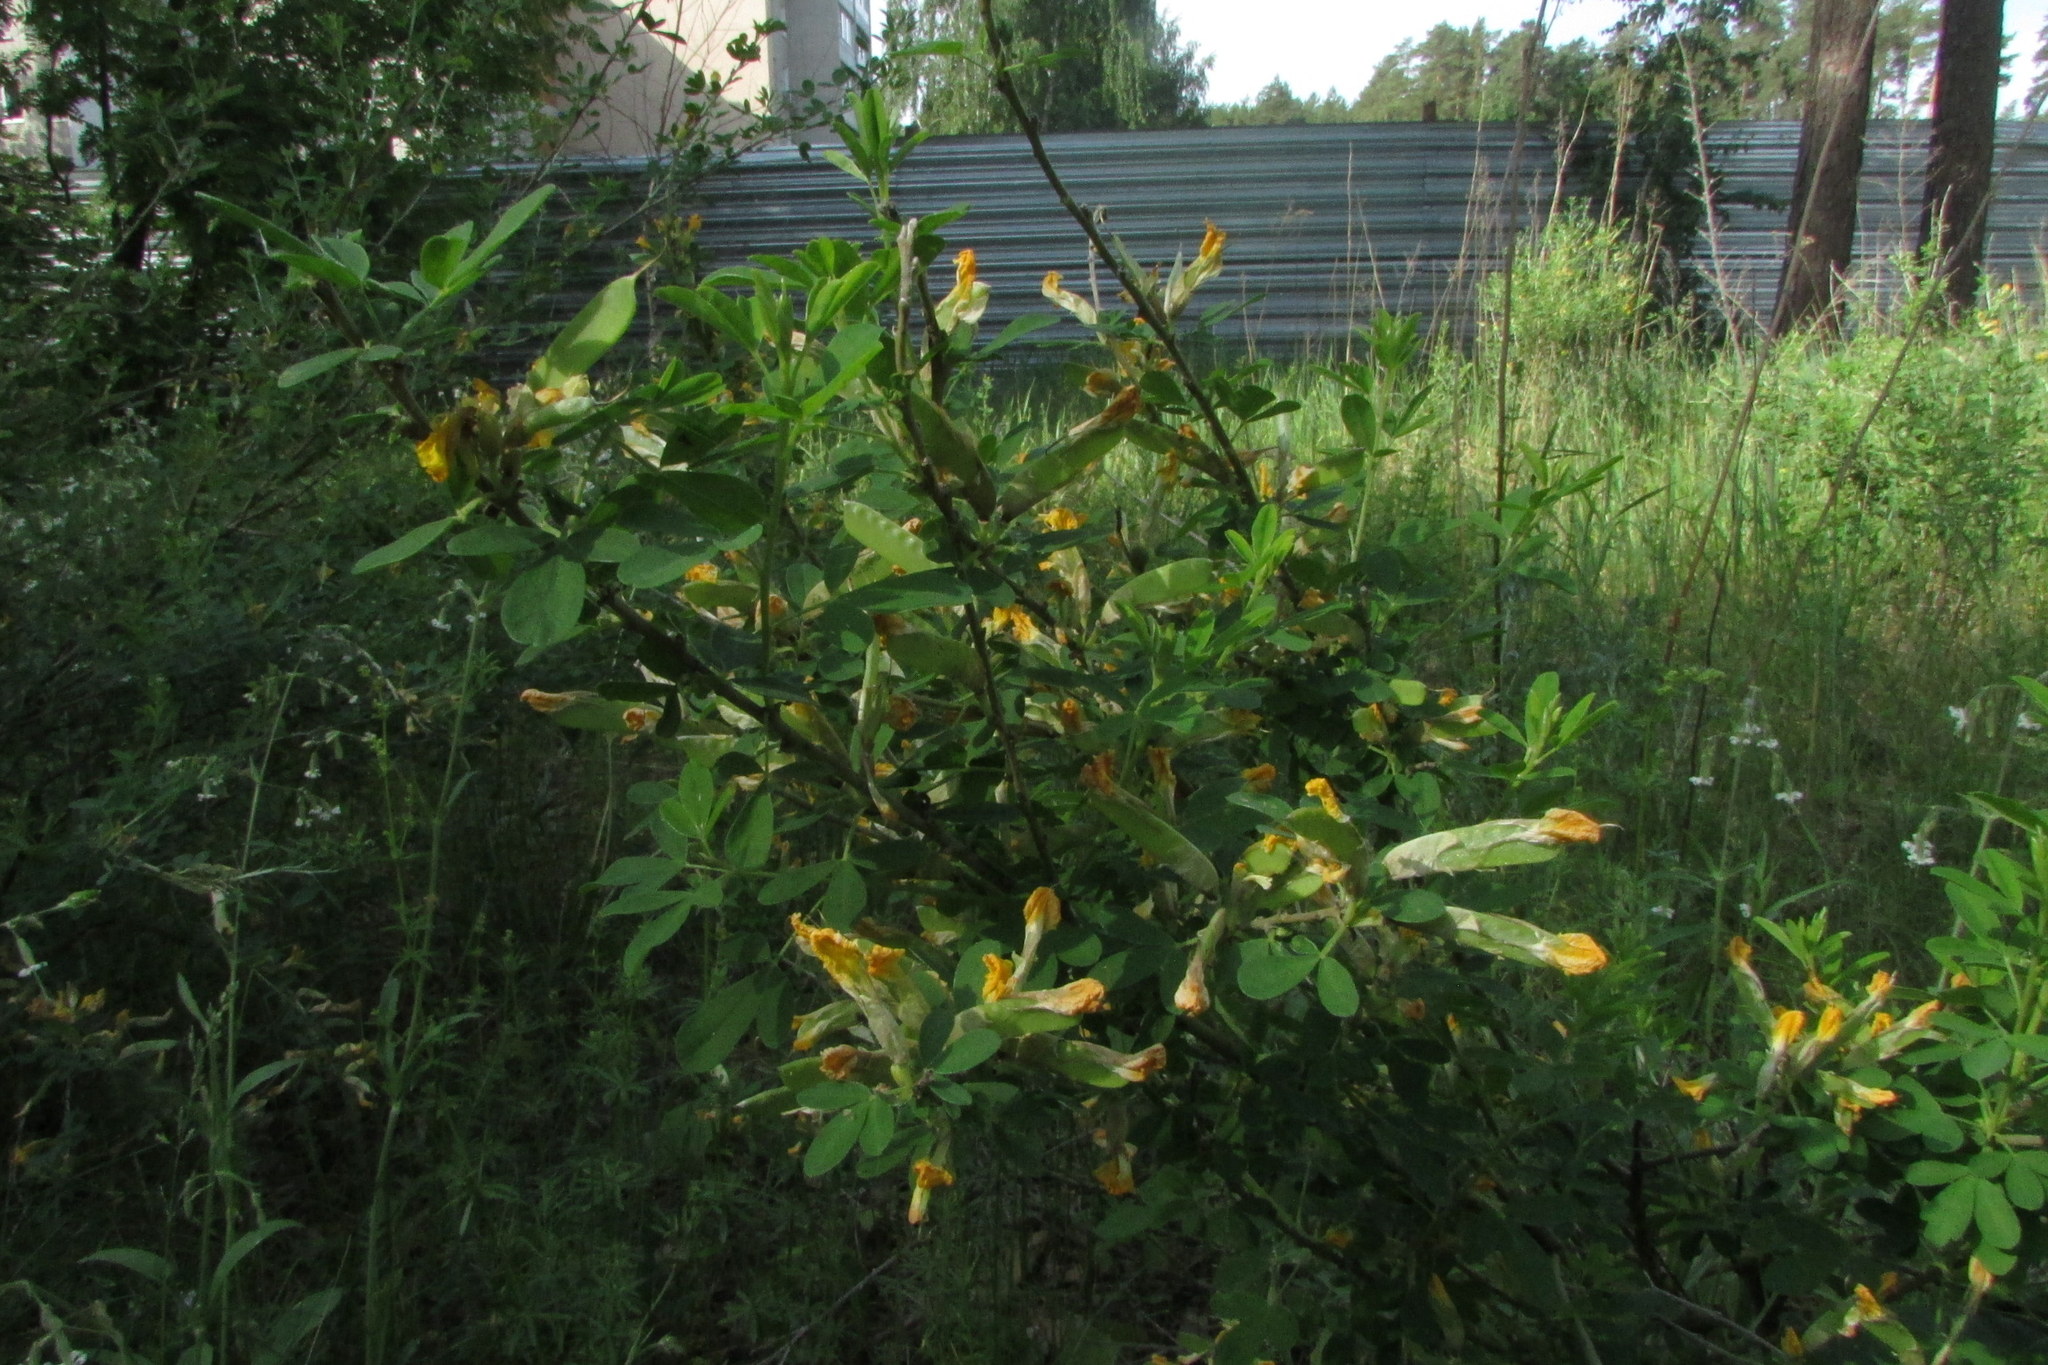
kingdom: Plantae
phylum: Tracheophyta
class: Magnoliopsida
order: Fabales
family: Fabaceae
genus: Chamaecytisus
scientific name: Chamaecytisus ruthenicus
